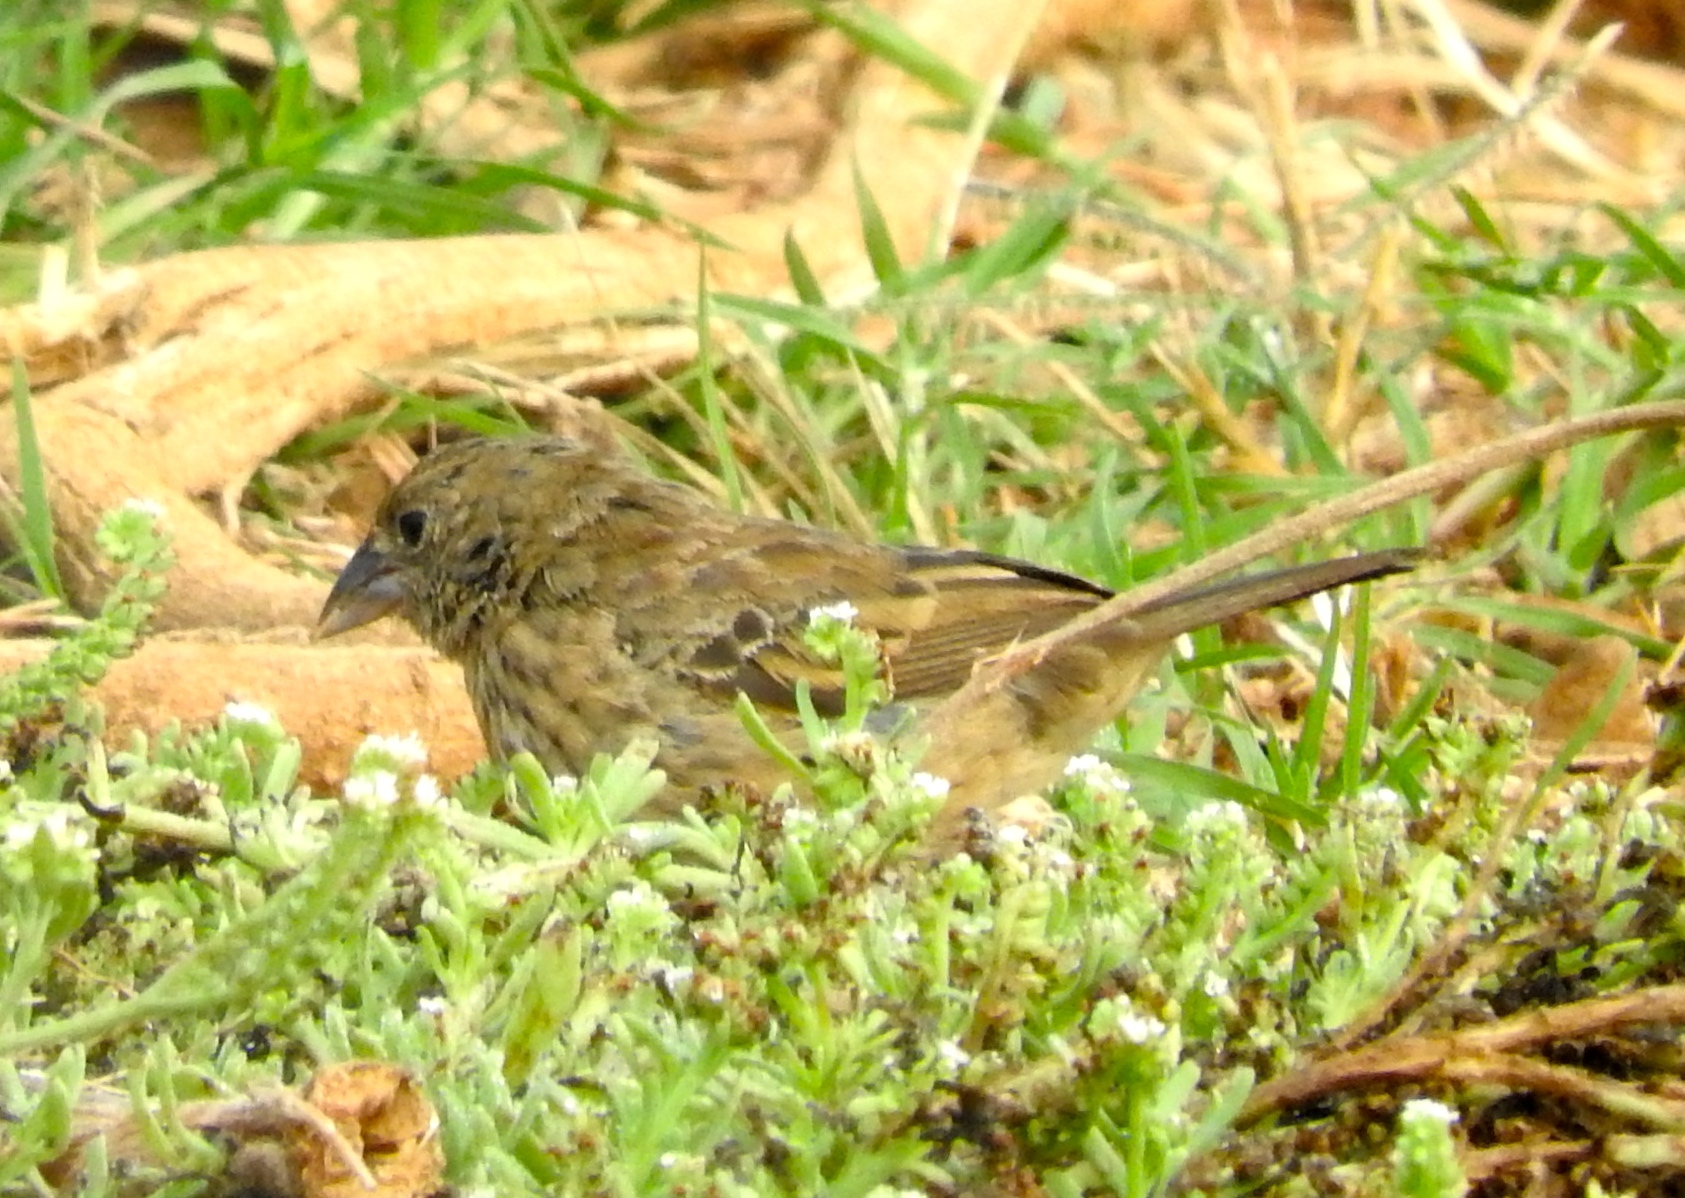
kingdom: Animalia
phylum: Chordata
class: Aves
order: Passeriformes
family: Thraupidae
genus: Volatinia
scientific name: Volatinia jacarina
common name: Blue-black grassquit
